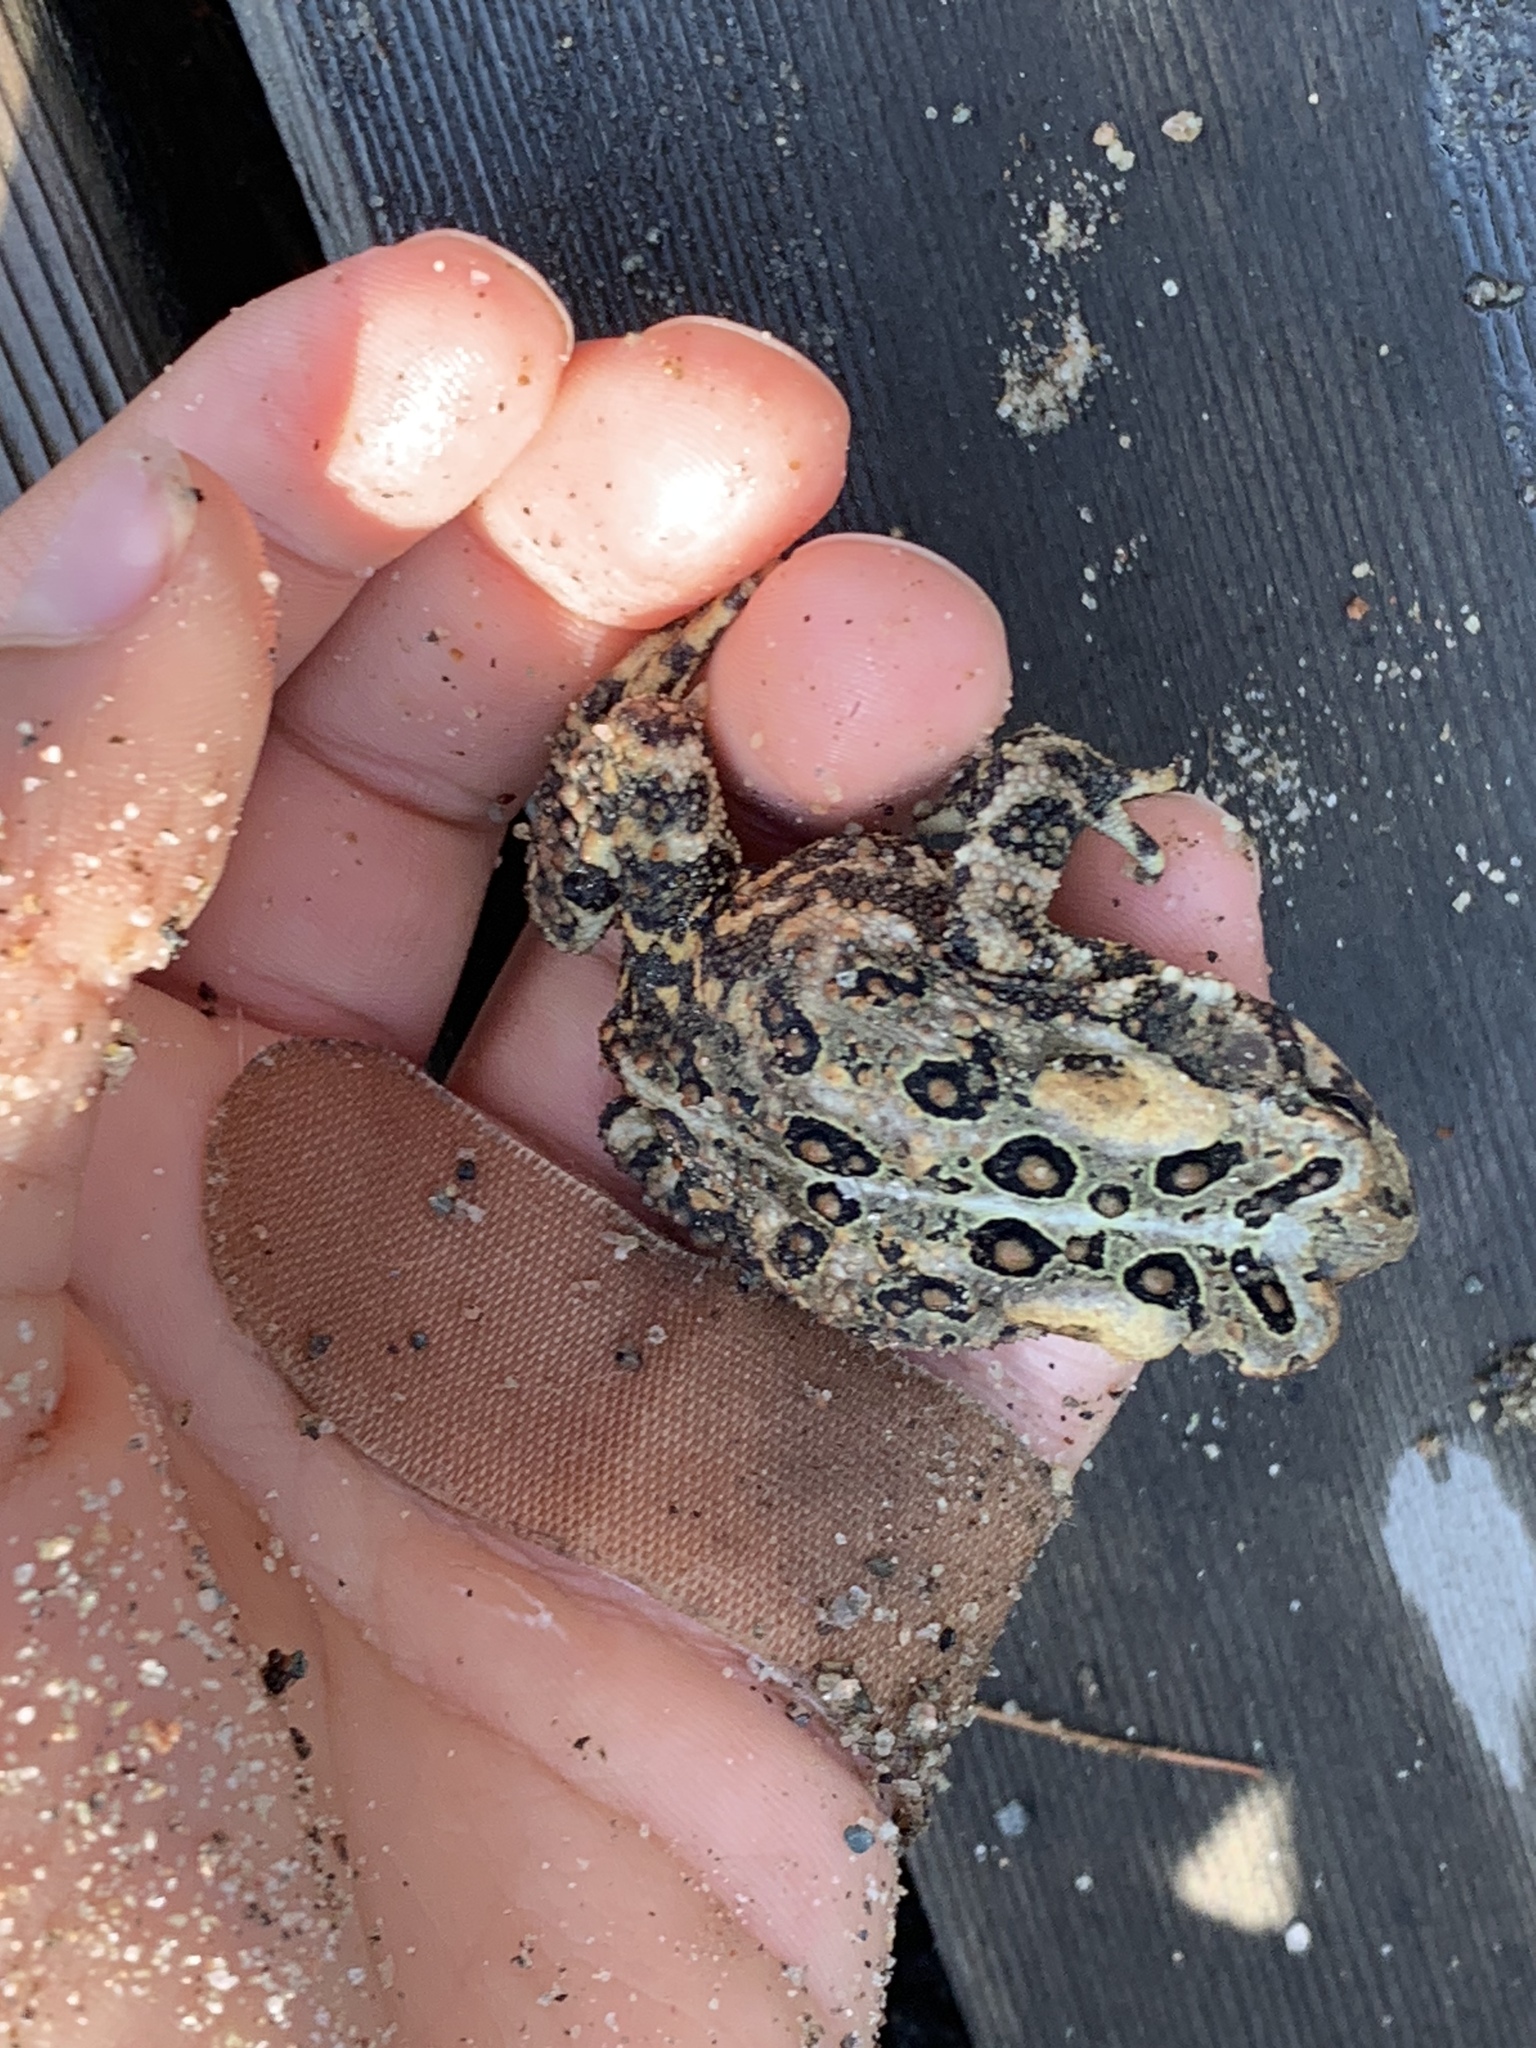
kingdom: Animalia
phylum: Chordata
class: Amphibia
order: Anura
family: Bufonidae
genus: Anaxyrus
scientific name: Anaxyrus americanus
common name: American toad
